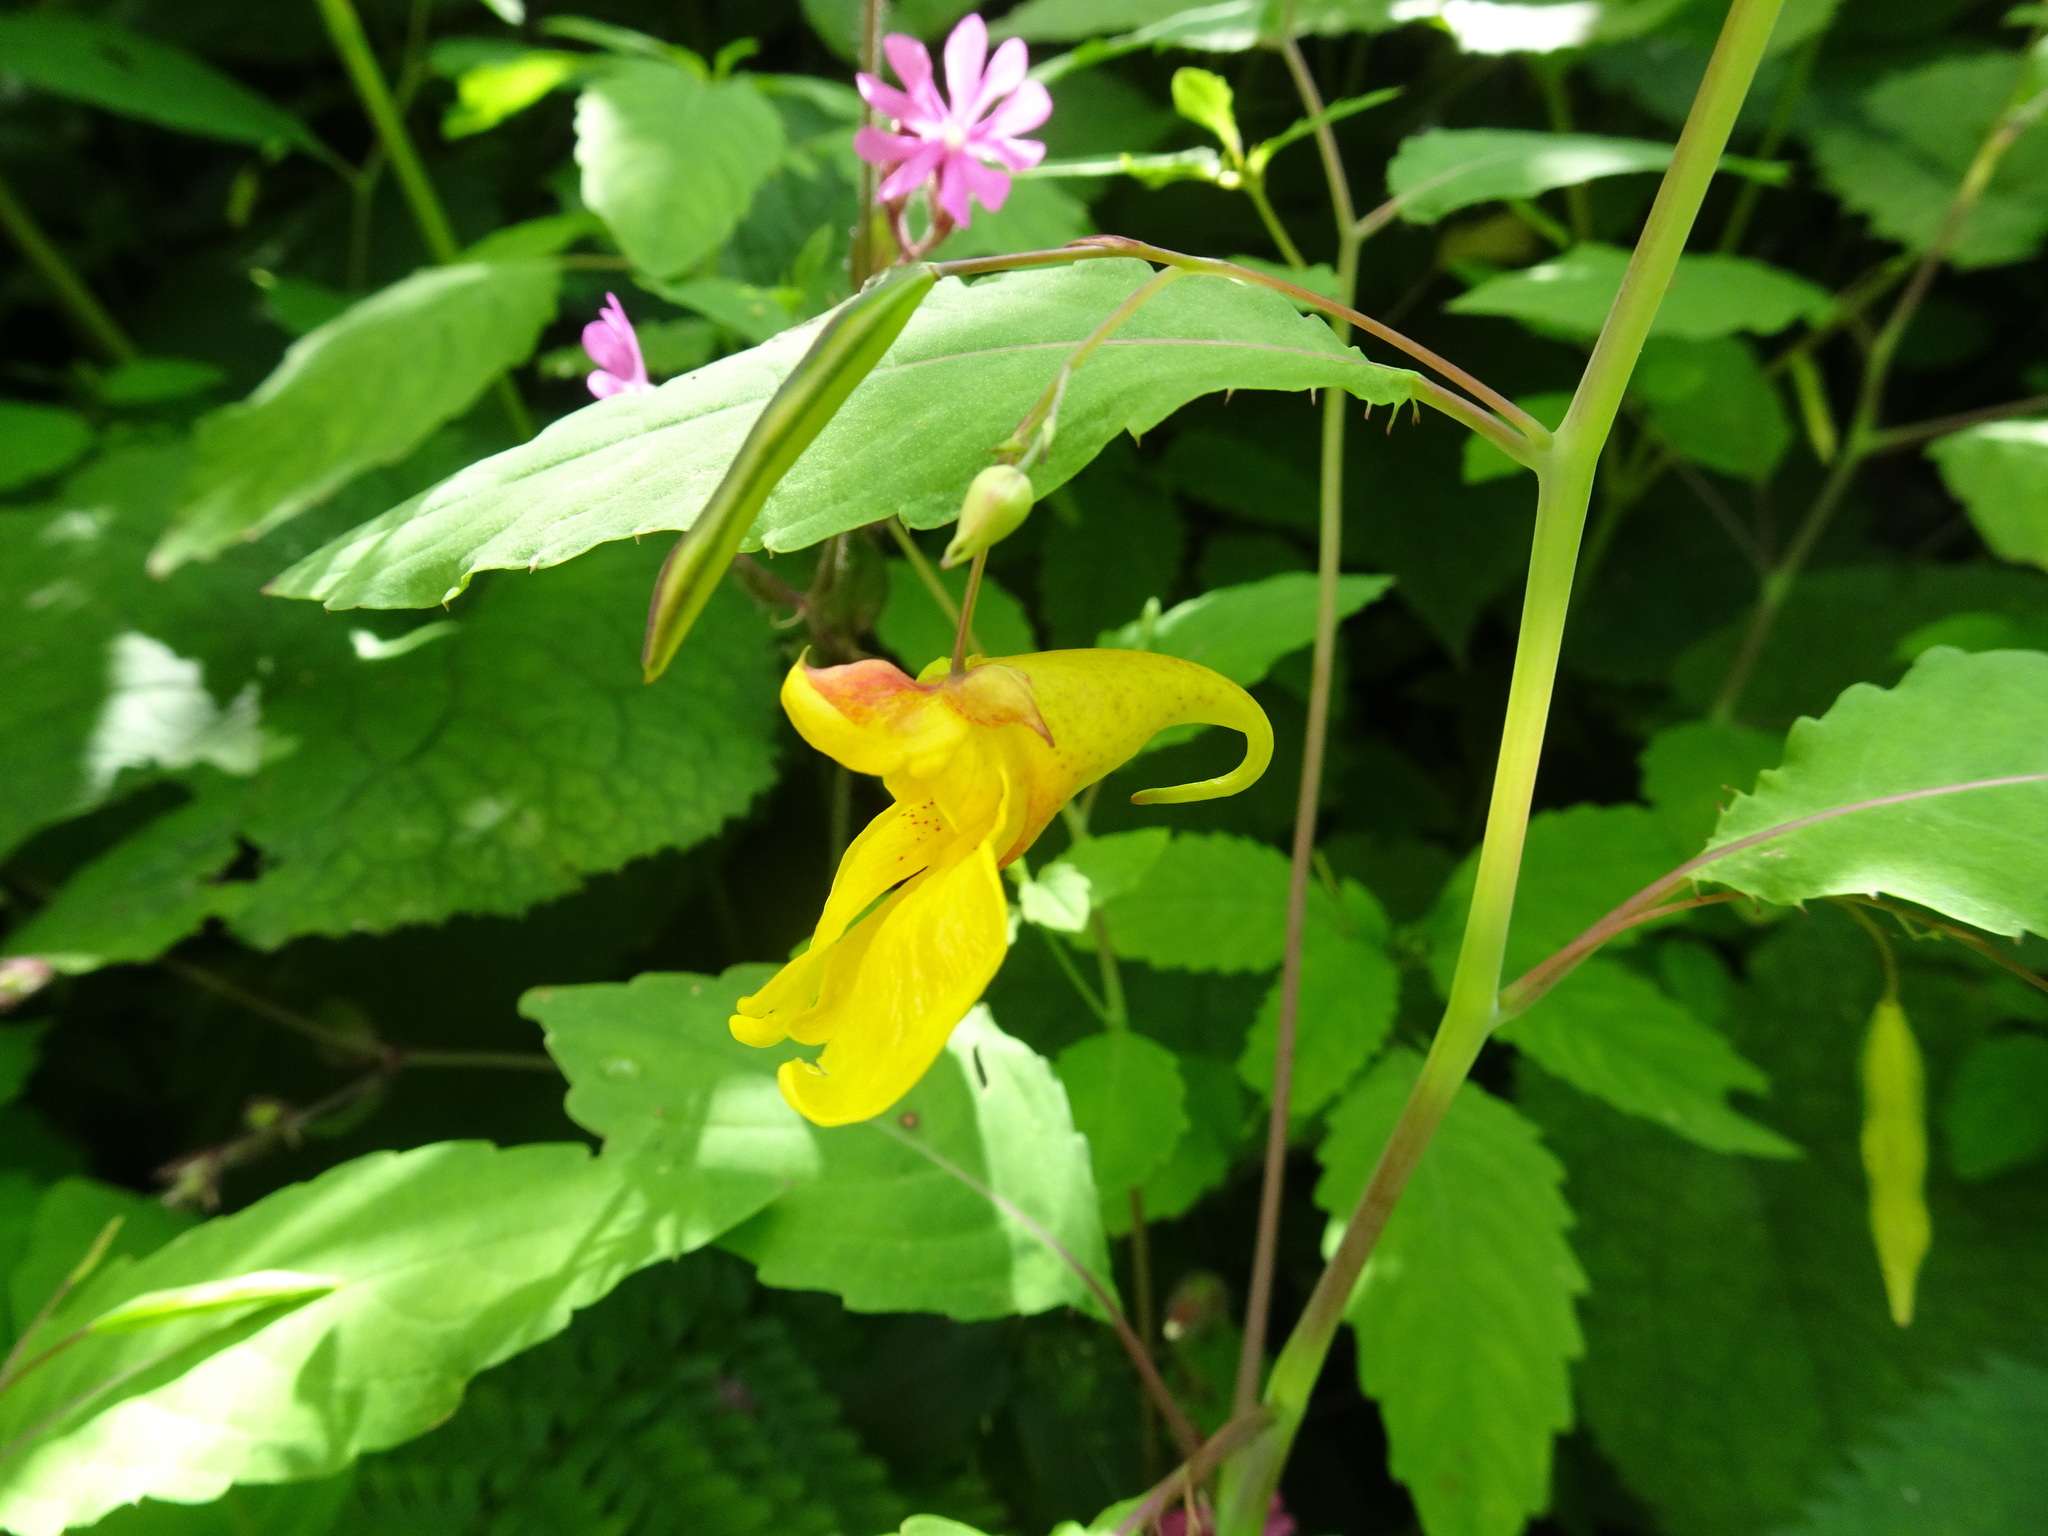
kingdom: Plantae
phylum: Tracheophyta
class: Magnoliopsida
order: Ericales
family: Balsaminaceae
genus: Impatiens
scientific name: Impatiens noli-tangere
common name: Touch-me-not balsam
